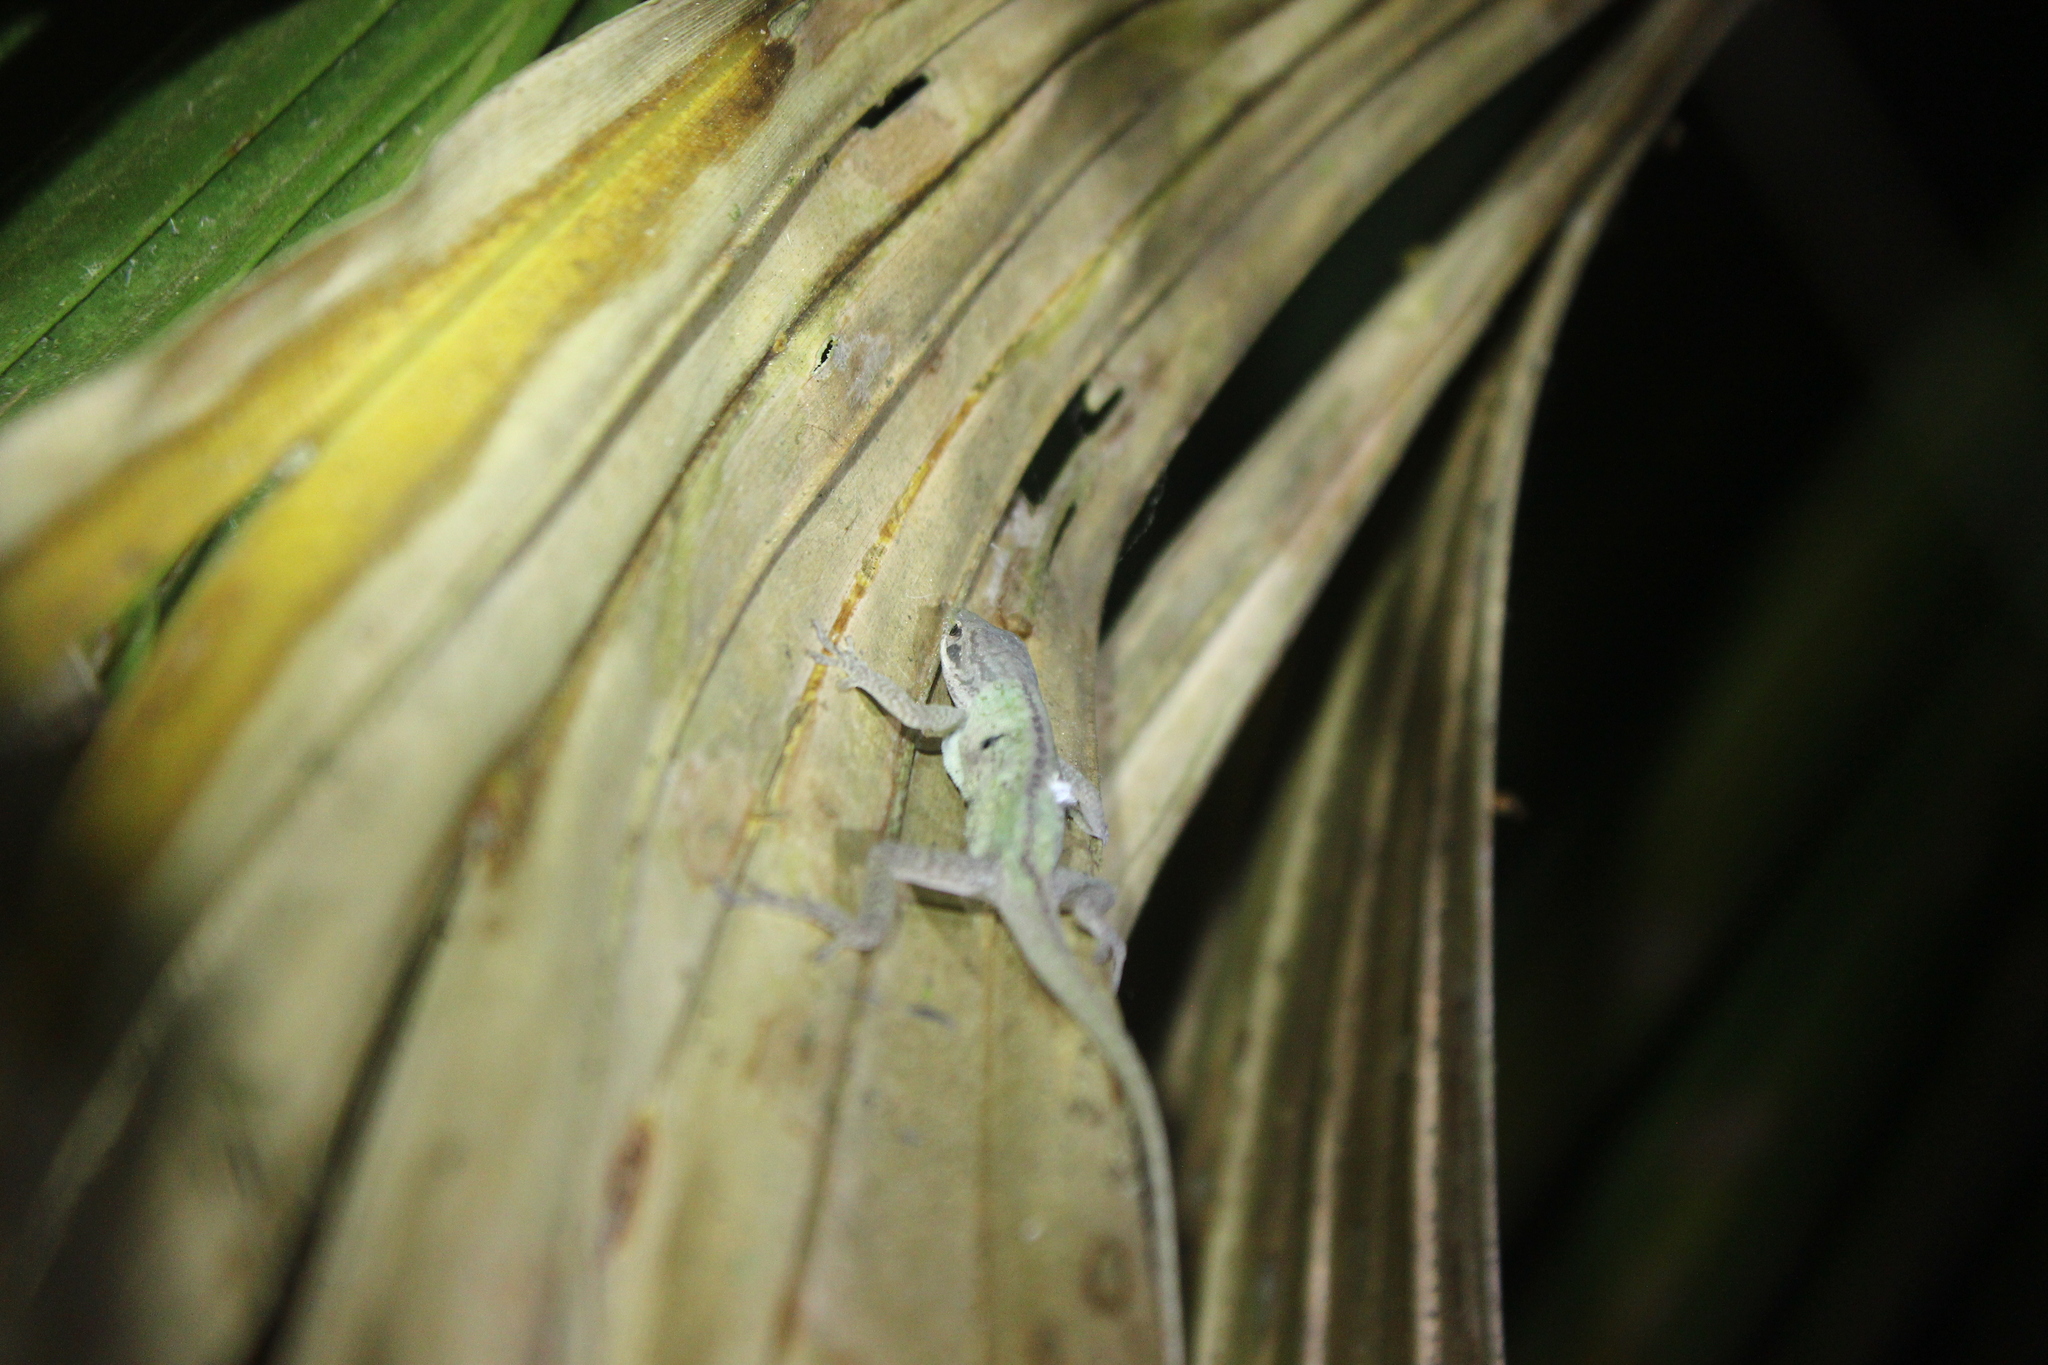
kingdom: Animalia
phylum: Chordata
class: Squamata
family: Dactyloidae
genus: Anolis
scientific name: Anolis carolinensis
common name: Green anole
